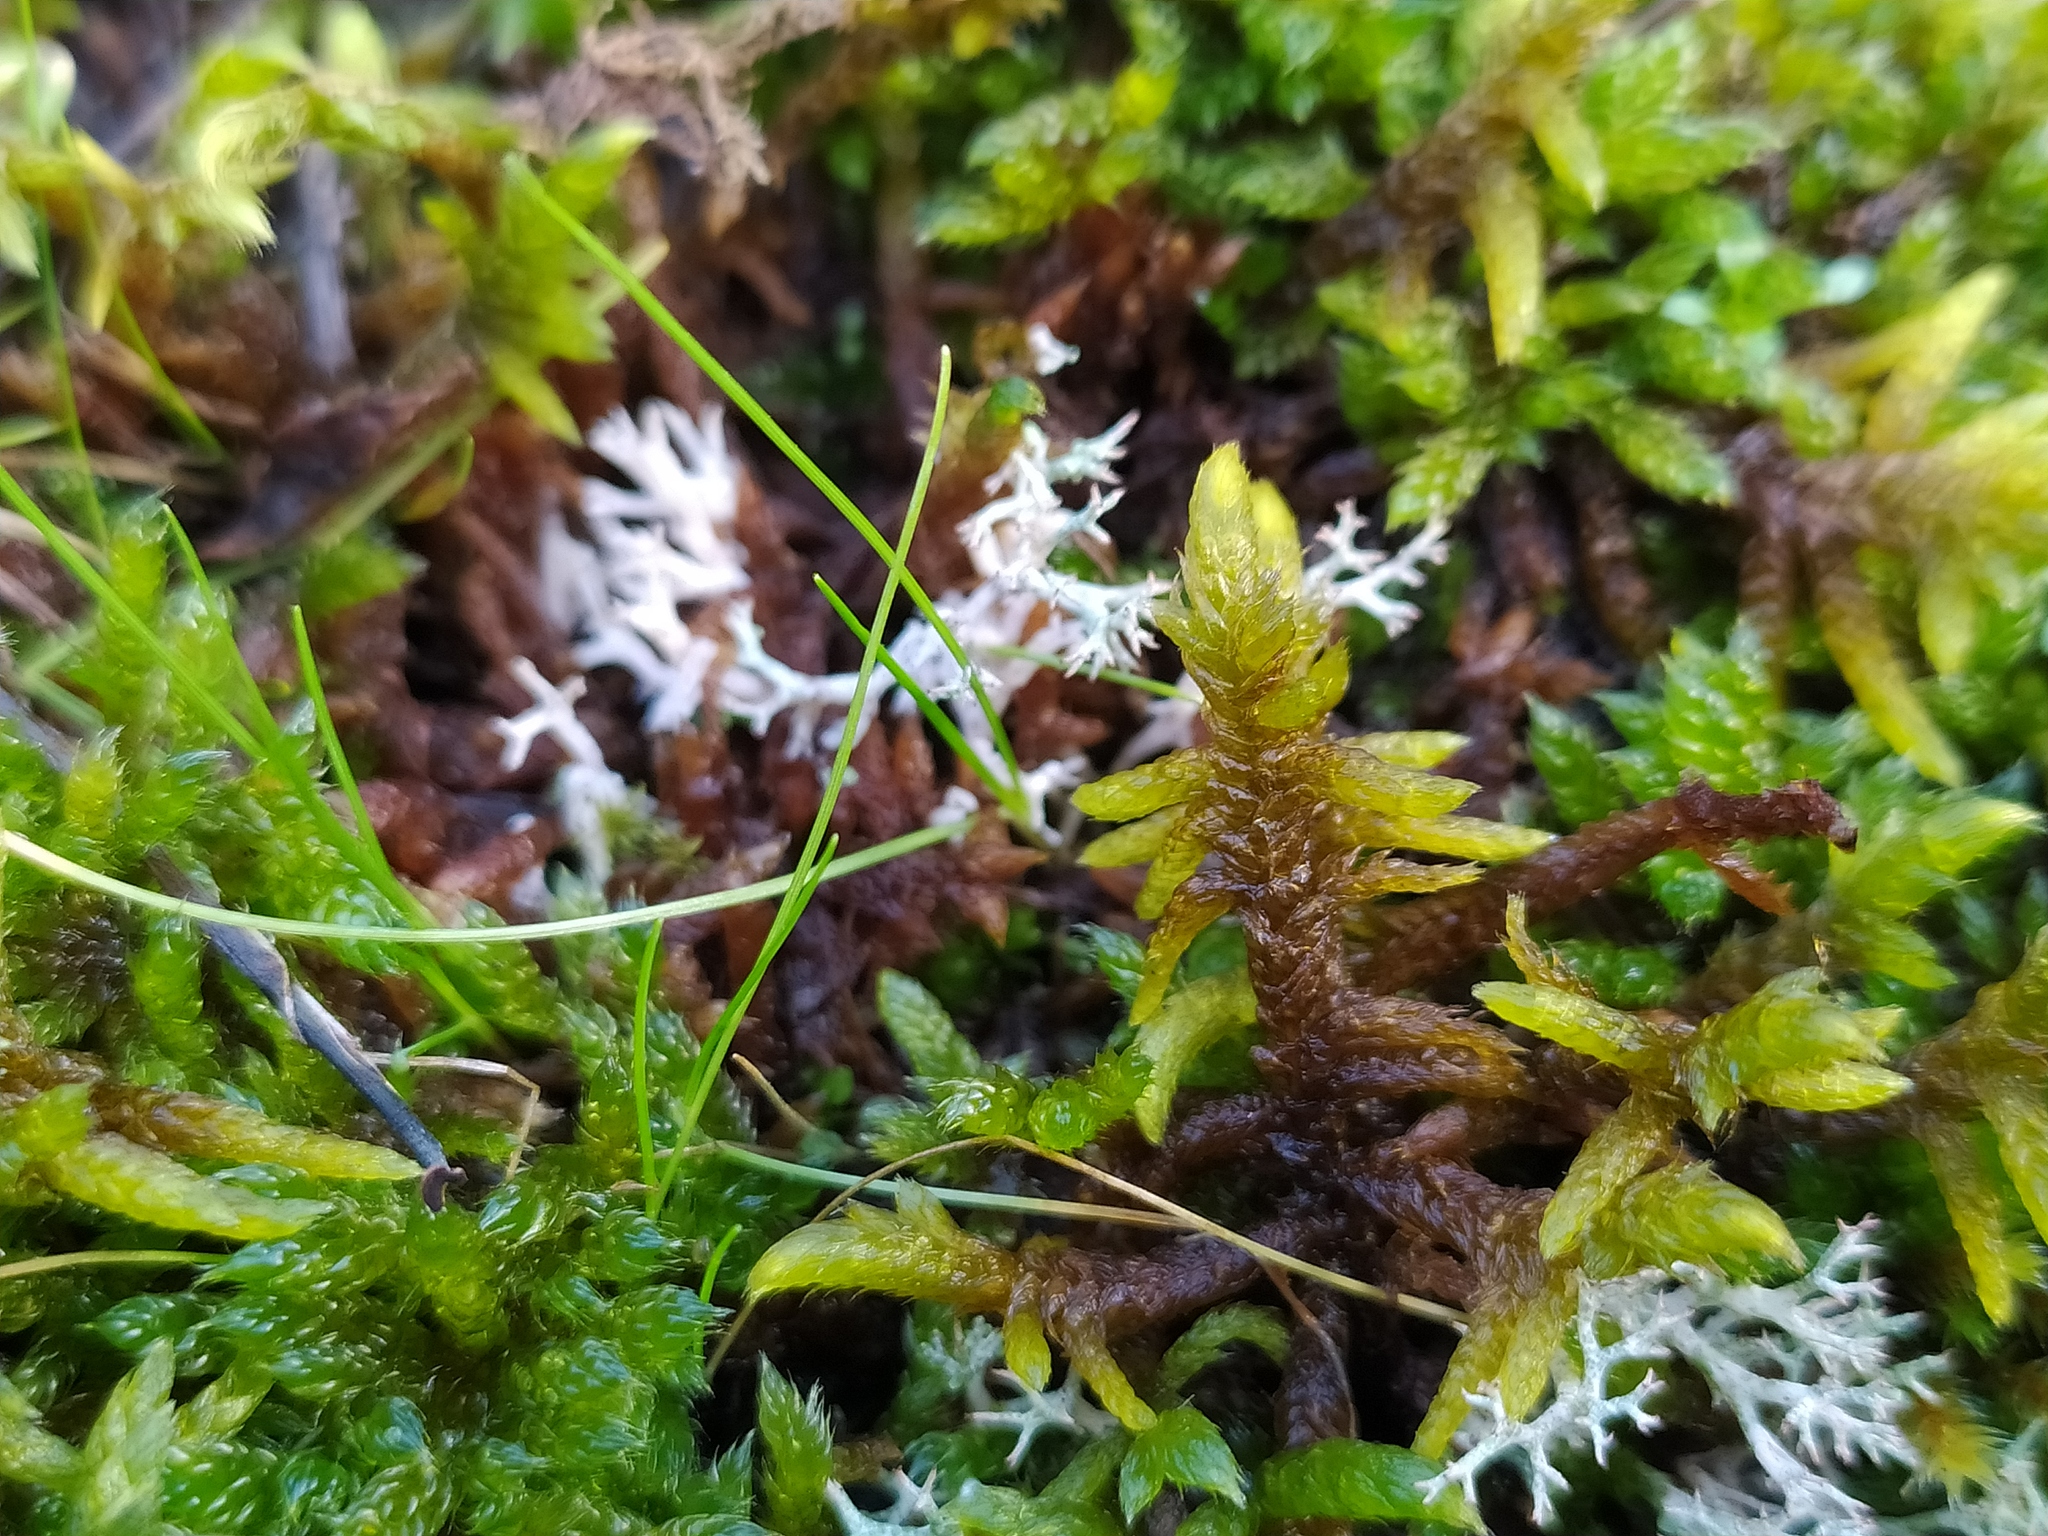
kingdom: Plantae
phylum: Bryophyta
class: Bryopsida
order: Hypnales
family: Rhytidiaceae
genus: Rhytidium
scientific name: Rhytidium rugosum
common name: Wrinkle-leaved moss
